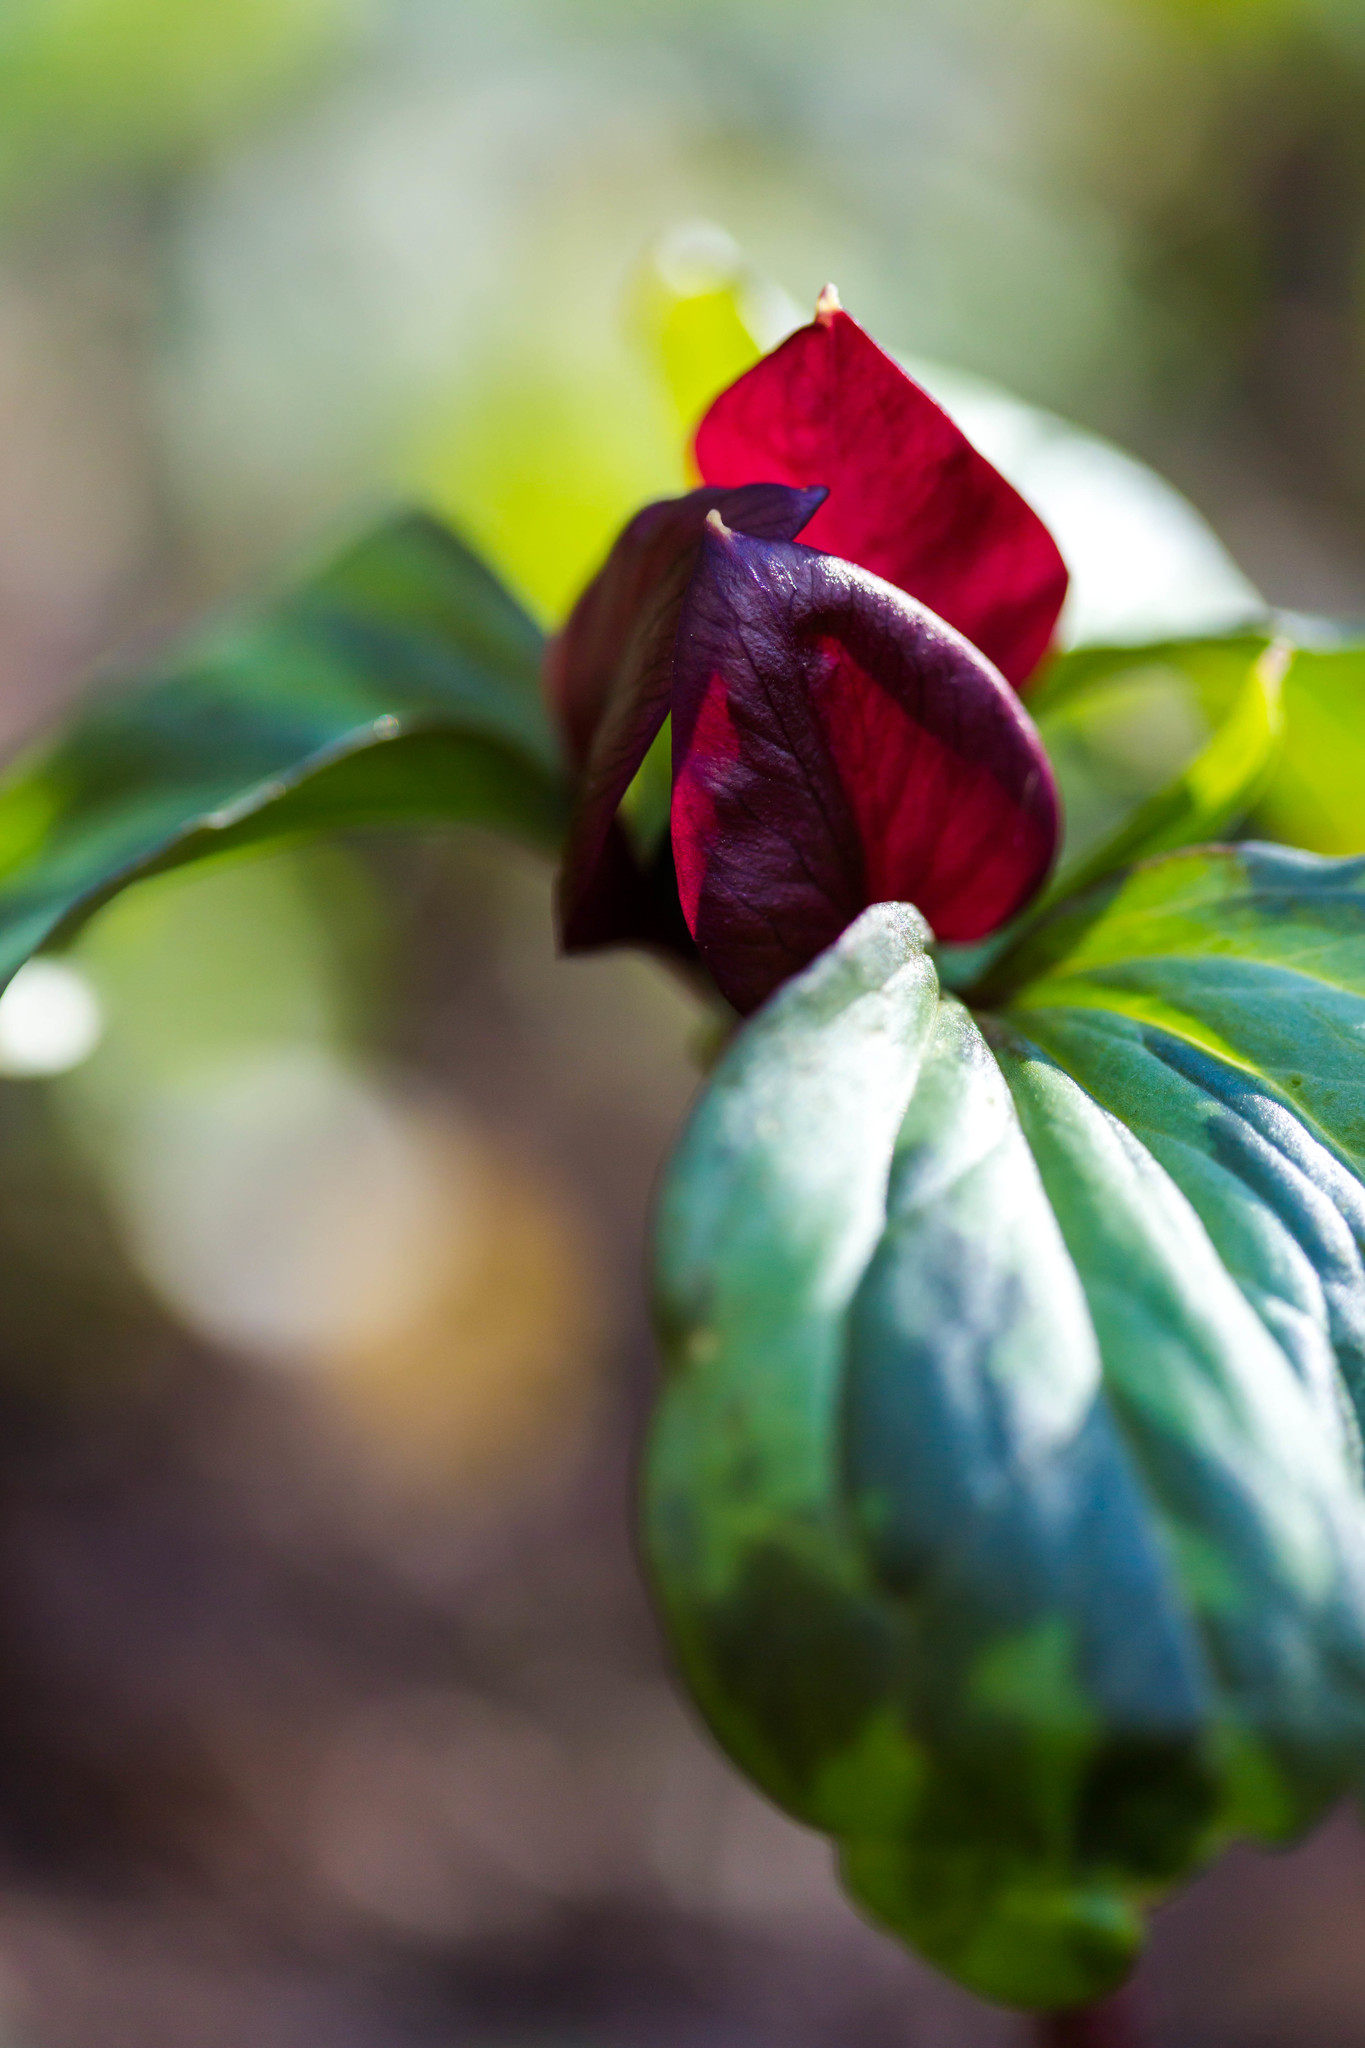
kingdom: Plantae
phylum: Tracheophyta
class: Liliopsida
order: Liliales
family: Melanthiaceae
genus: Trillium
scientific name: Trillium recurvatum
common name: Bloody butcher
